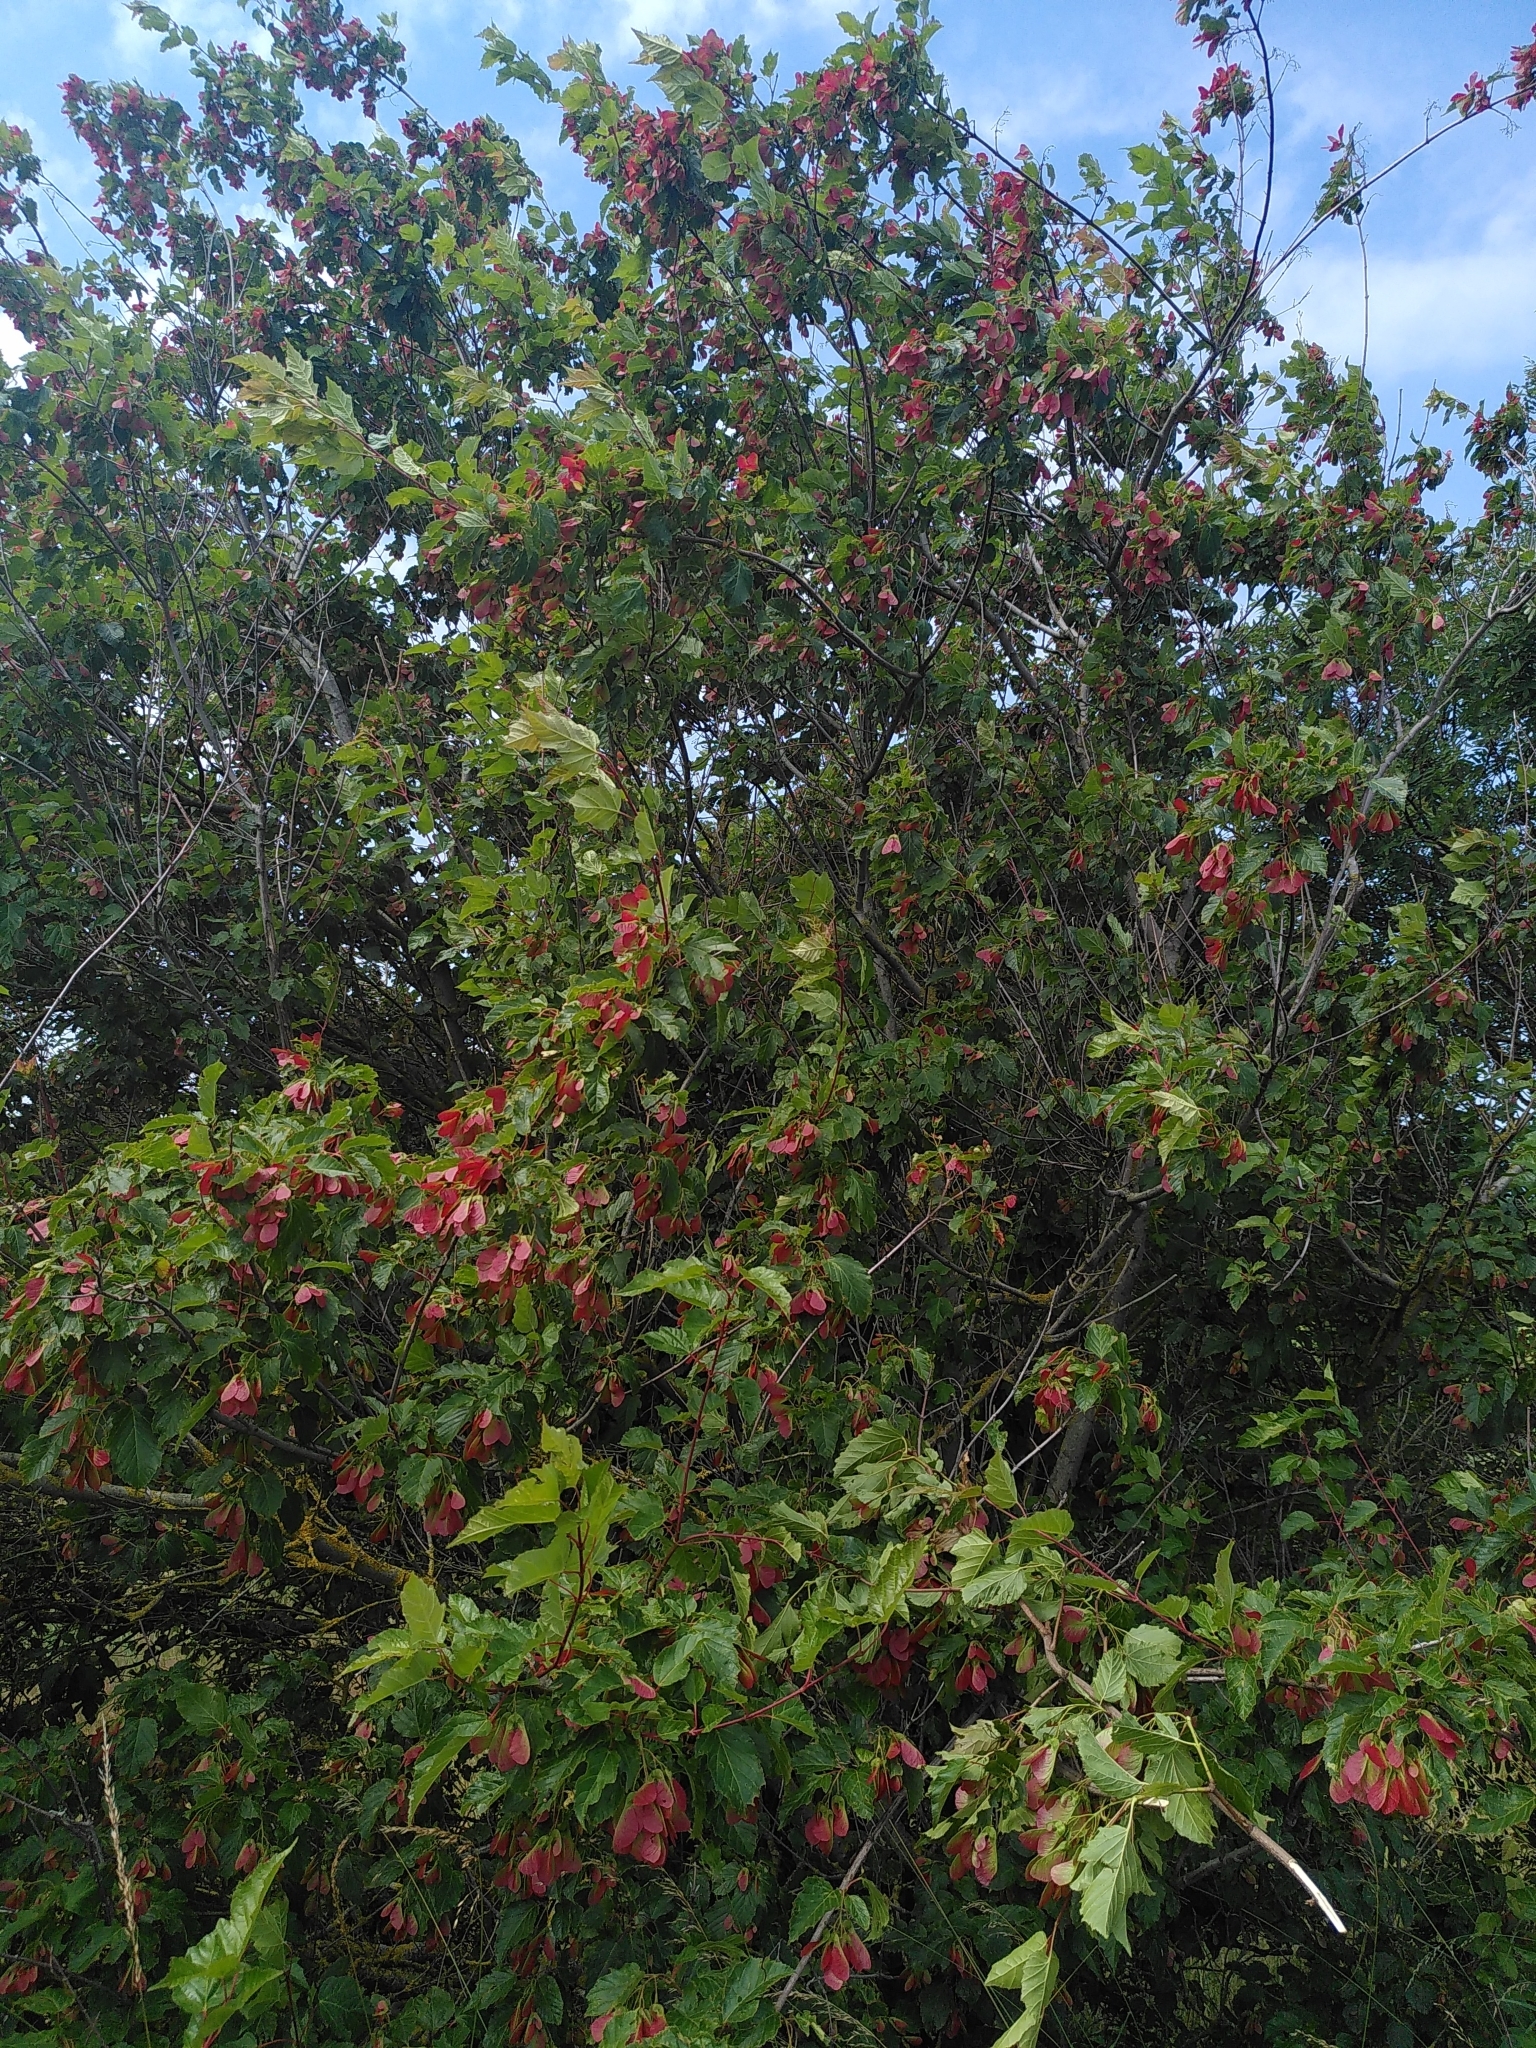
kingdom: Plantae
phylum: Tracheophyta
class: Magnoliopsida
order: Sapindales
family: Sapindaceae
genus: Acer
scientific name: Acer tataricum
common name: Tartar maple
